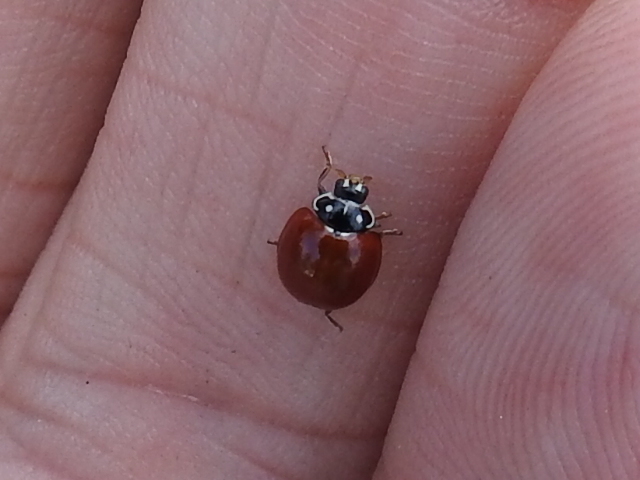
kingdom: Animalia
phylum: Arthropoda
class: Insecta
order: Coleoptera
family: Coccinellidae
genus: Cycloneda
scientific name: Cycloneda sanguinea
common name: Ladybird beetle
